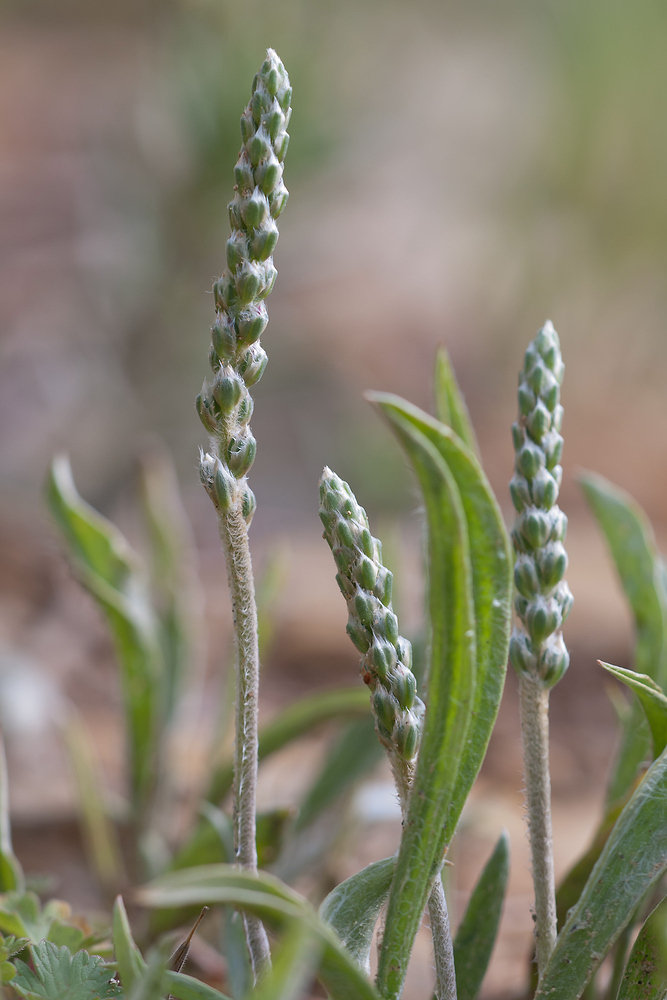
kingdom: Plantae
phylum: Tracheophyta
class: Magnoliopsida
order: Lamiales
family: Plantaginaceae
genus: Plantago
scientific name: Plantago albicans
